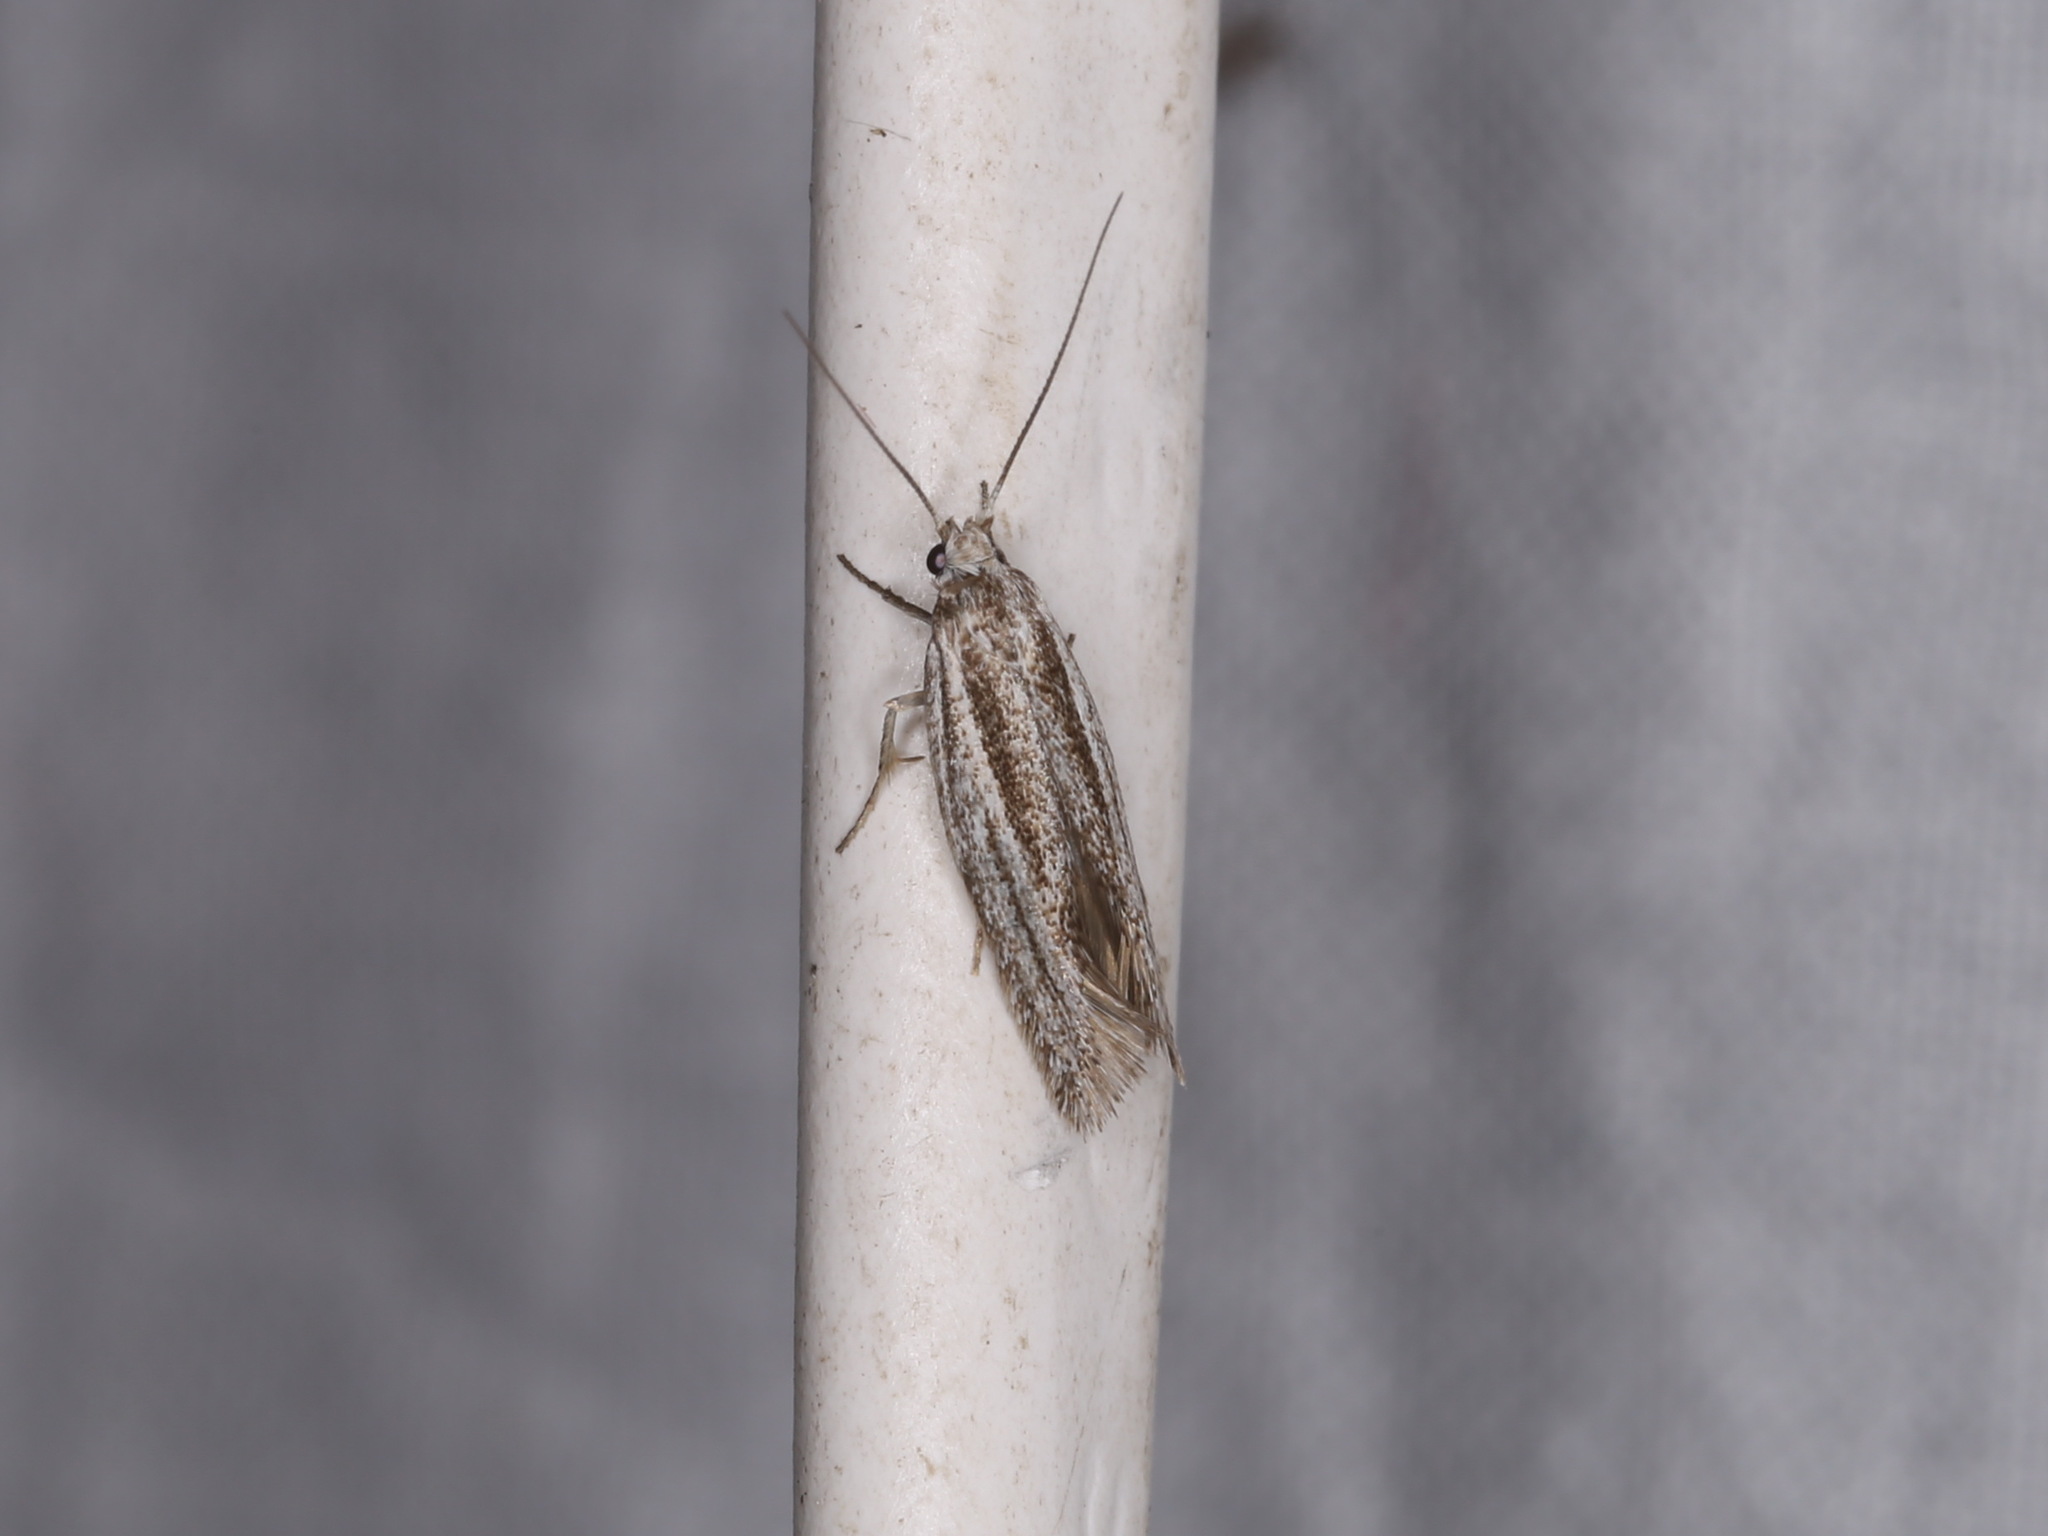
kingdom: Animalia
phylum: Arthropoda
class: Insecta
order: Lepidoptera
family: Oecophoridae
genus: Antipterna
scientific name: Antipterna ptychomochla
